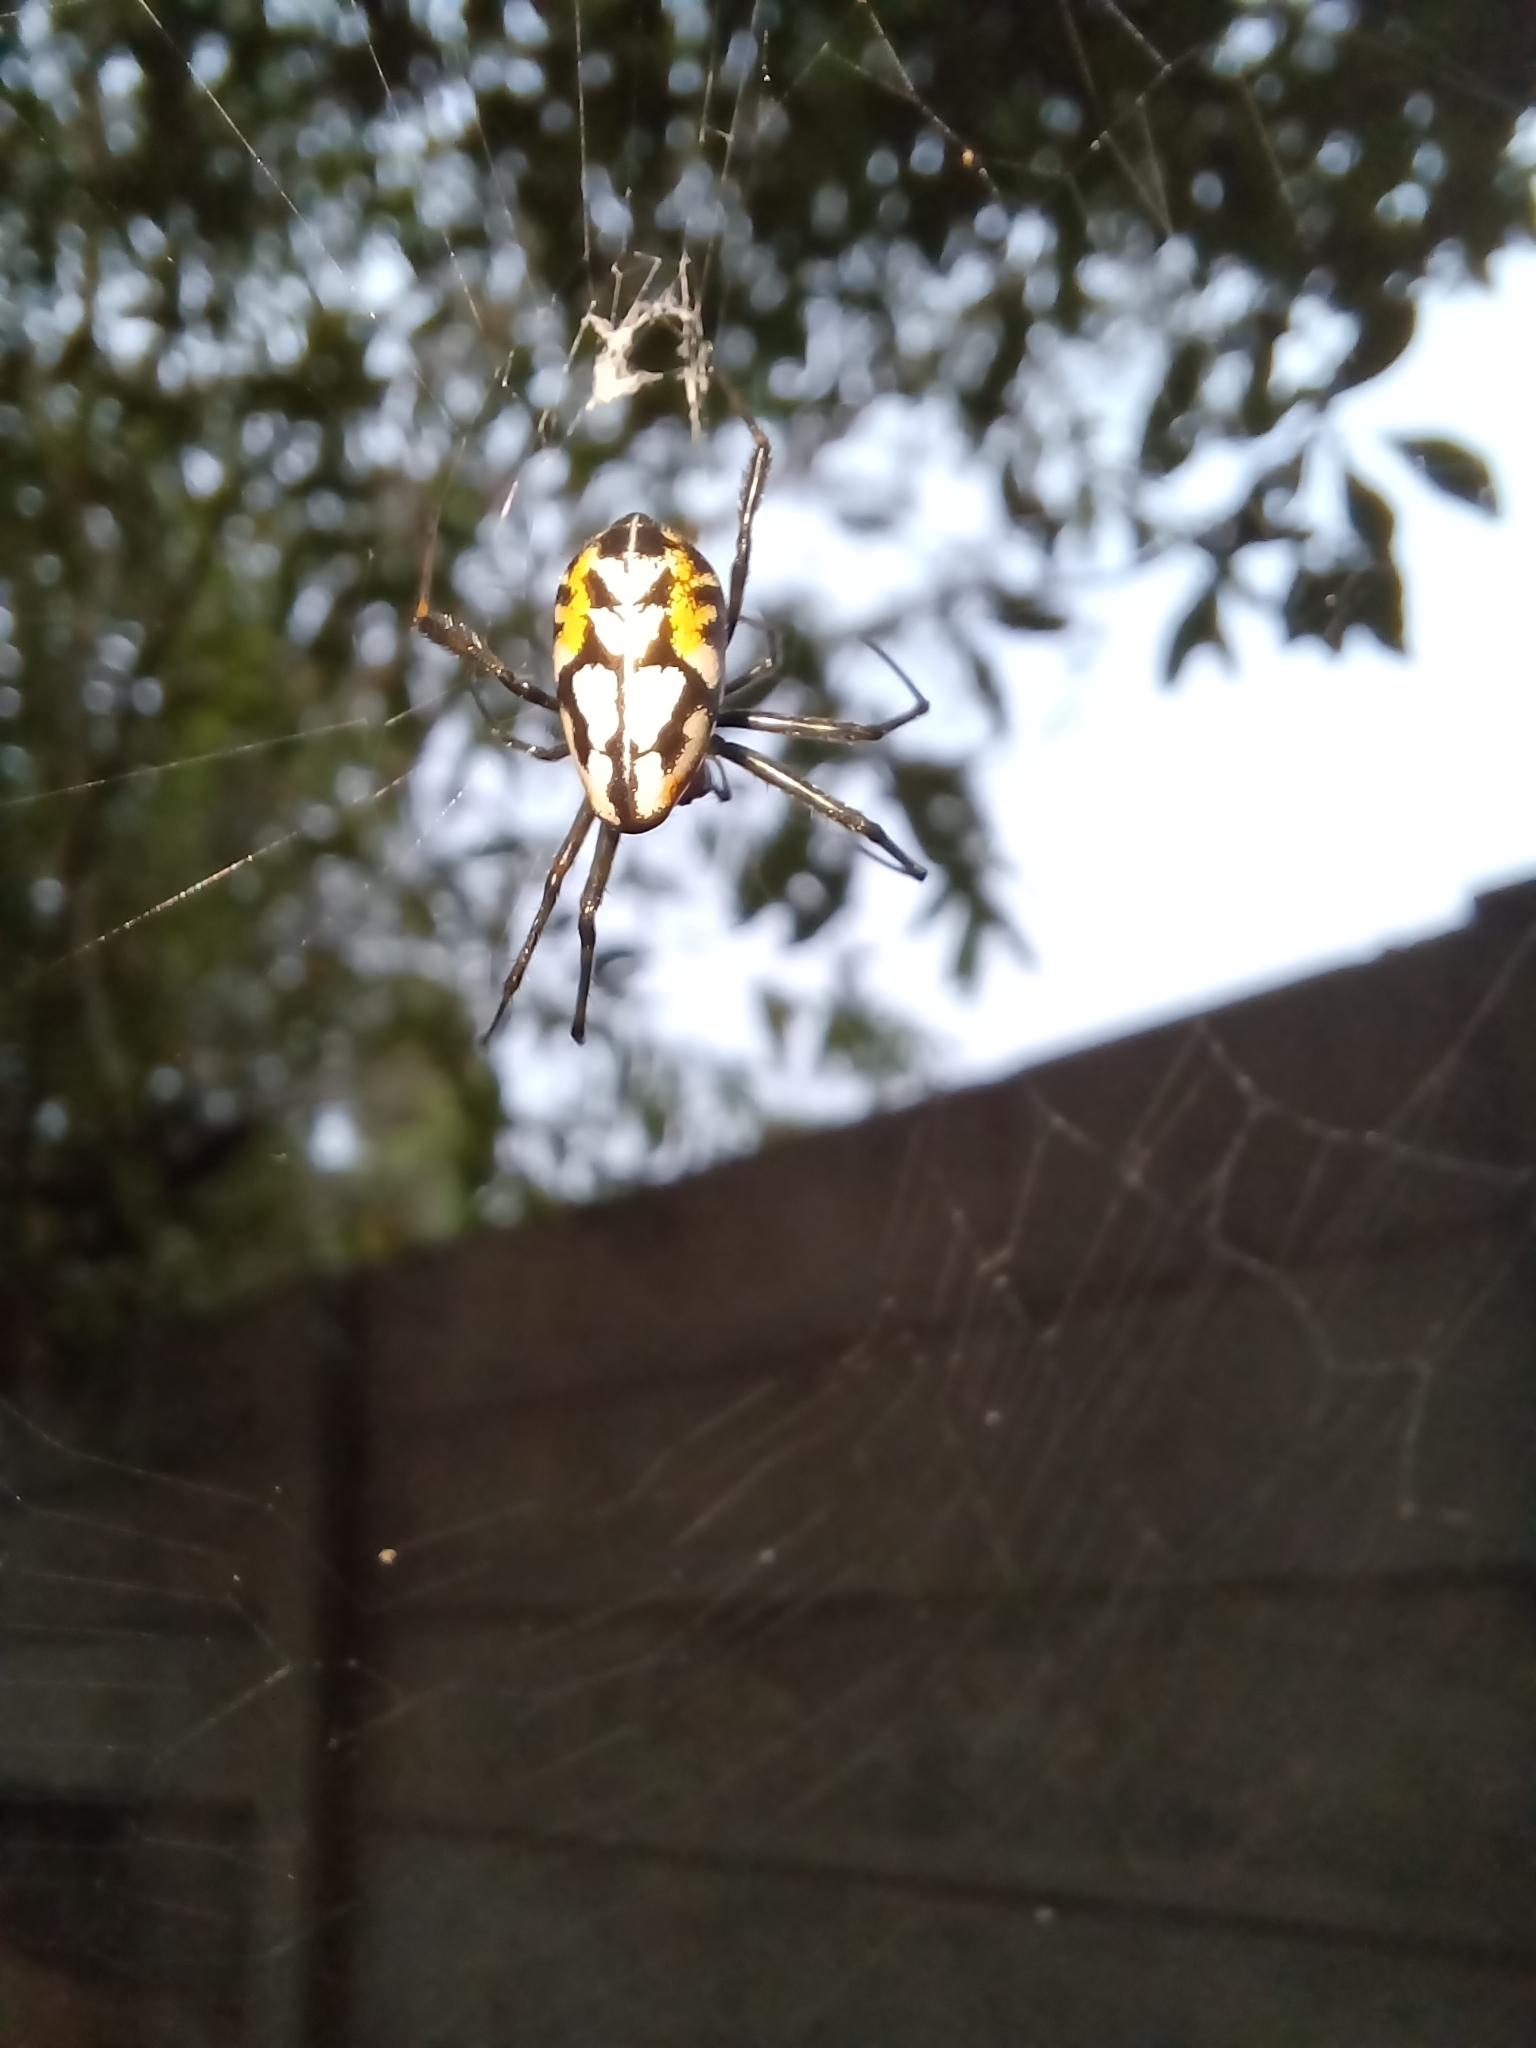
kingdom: Animalia
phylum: Arthropoda
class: Arachnida
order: Araneae
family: Tetragnathidae
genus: Leucauge
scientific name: Leucauge fastigata
